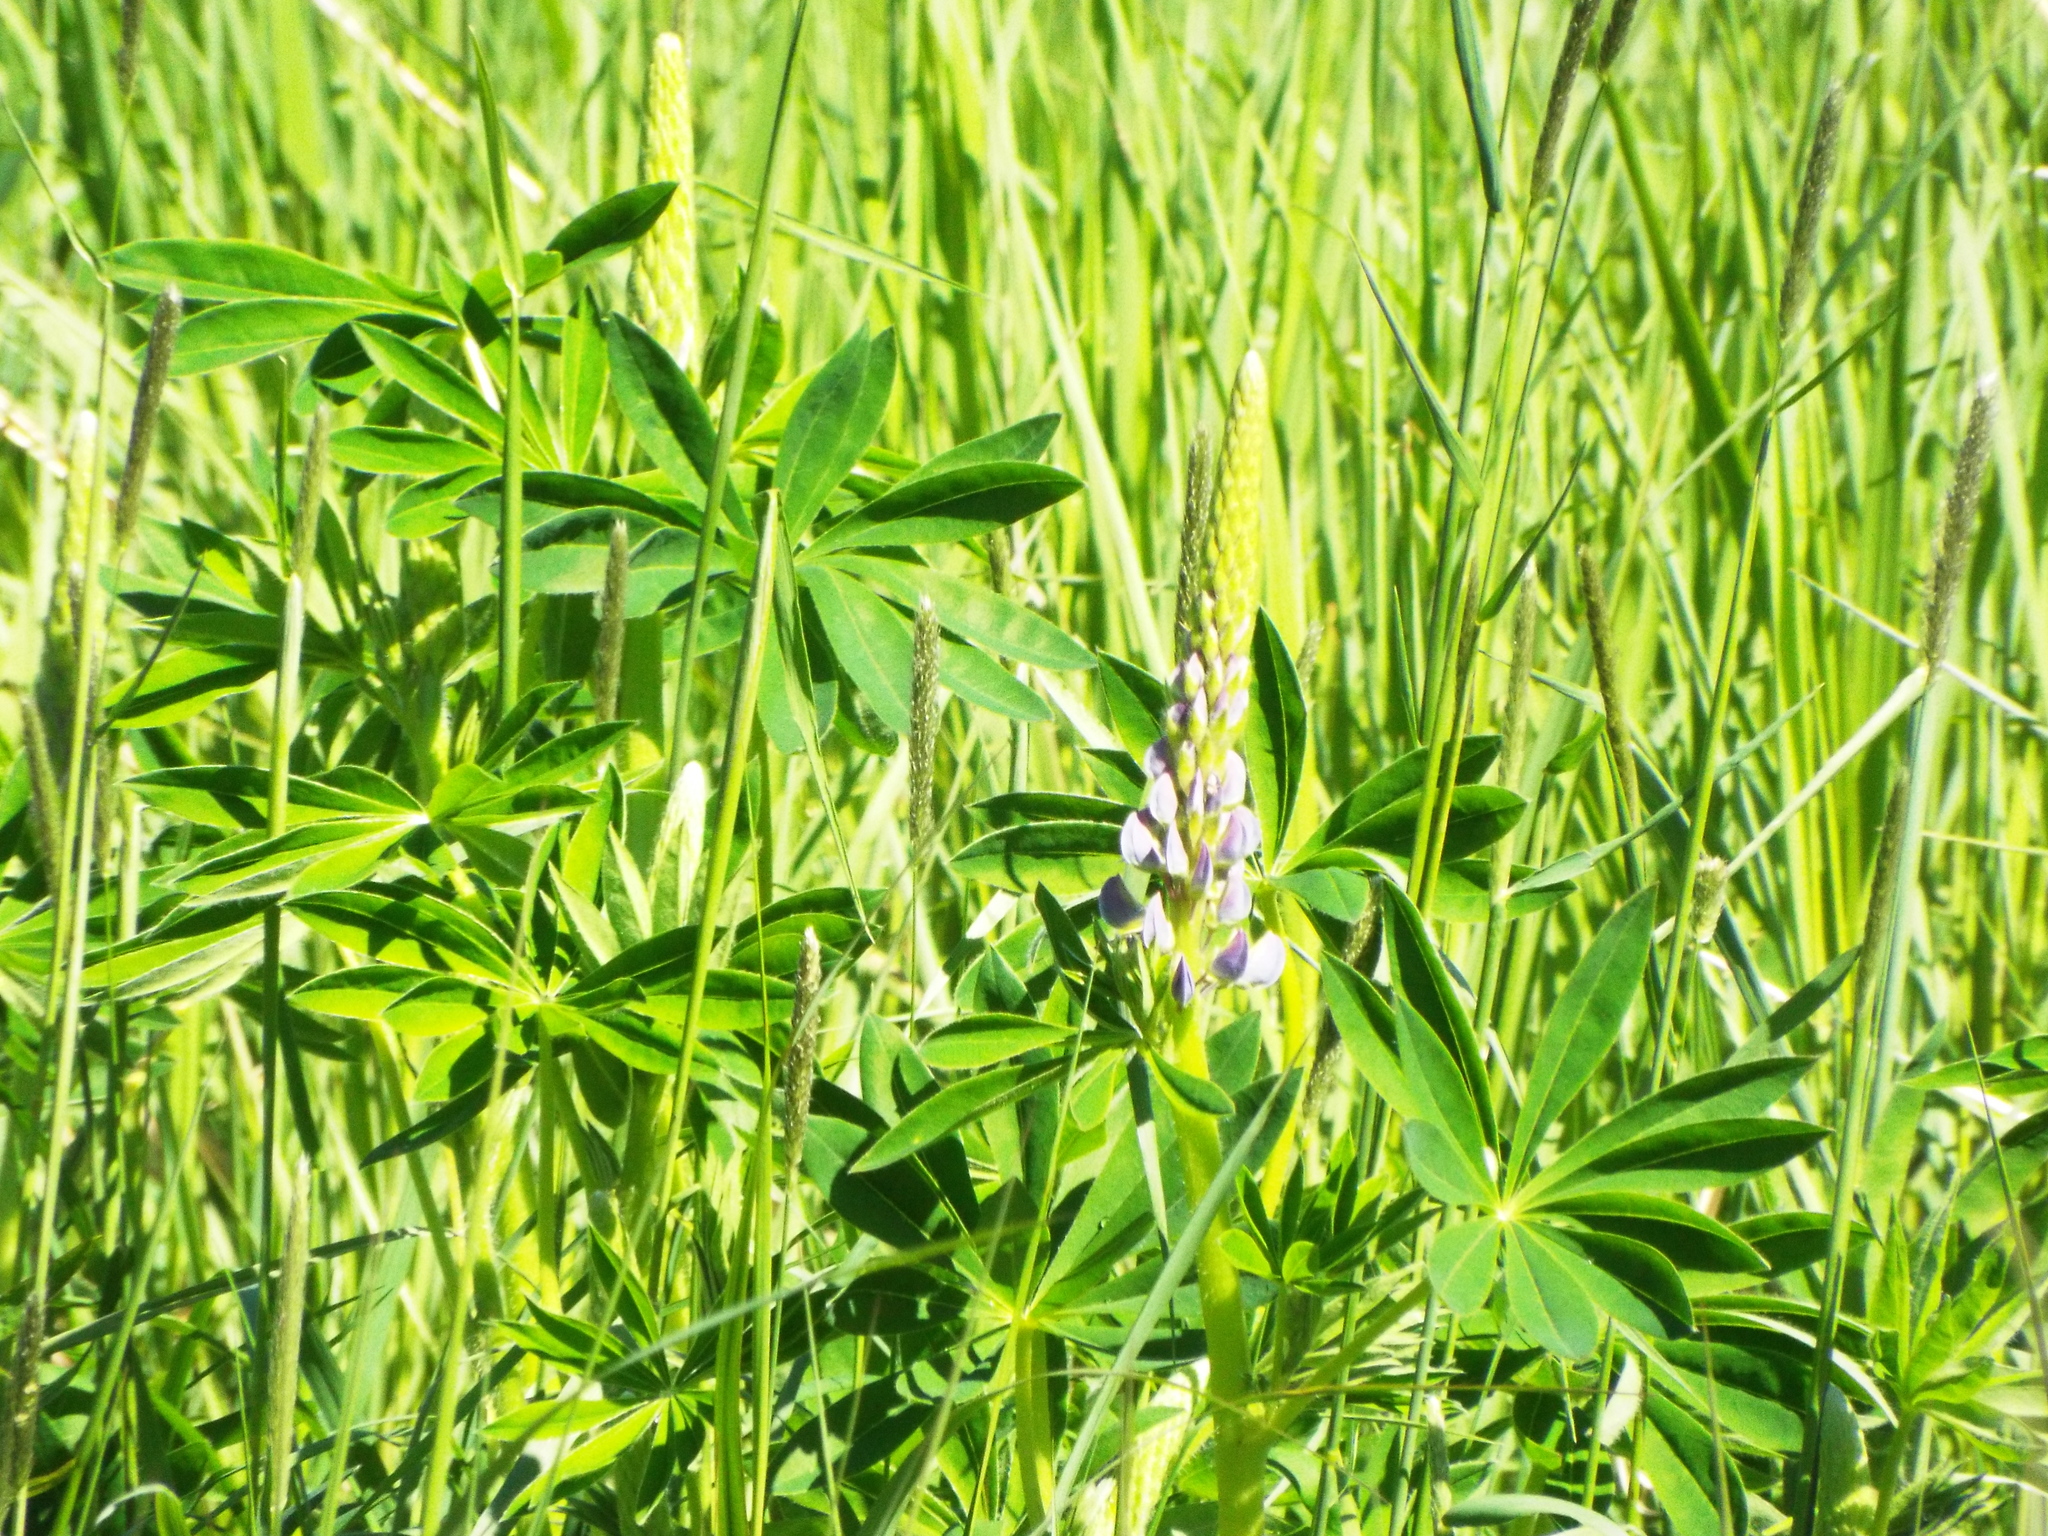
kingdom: Plantae
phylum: Tracheophyta
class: Magnoliopsida
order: Fabales
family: Fabaceae
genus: Lupinus
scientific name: Lupinus polyphyllus
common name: Garden lupin
